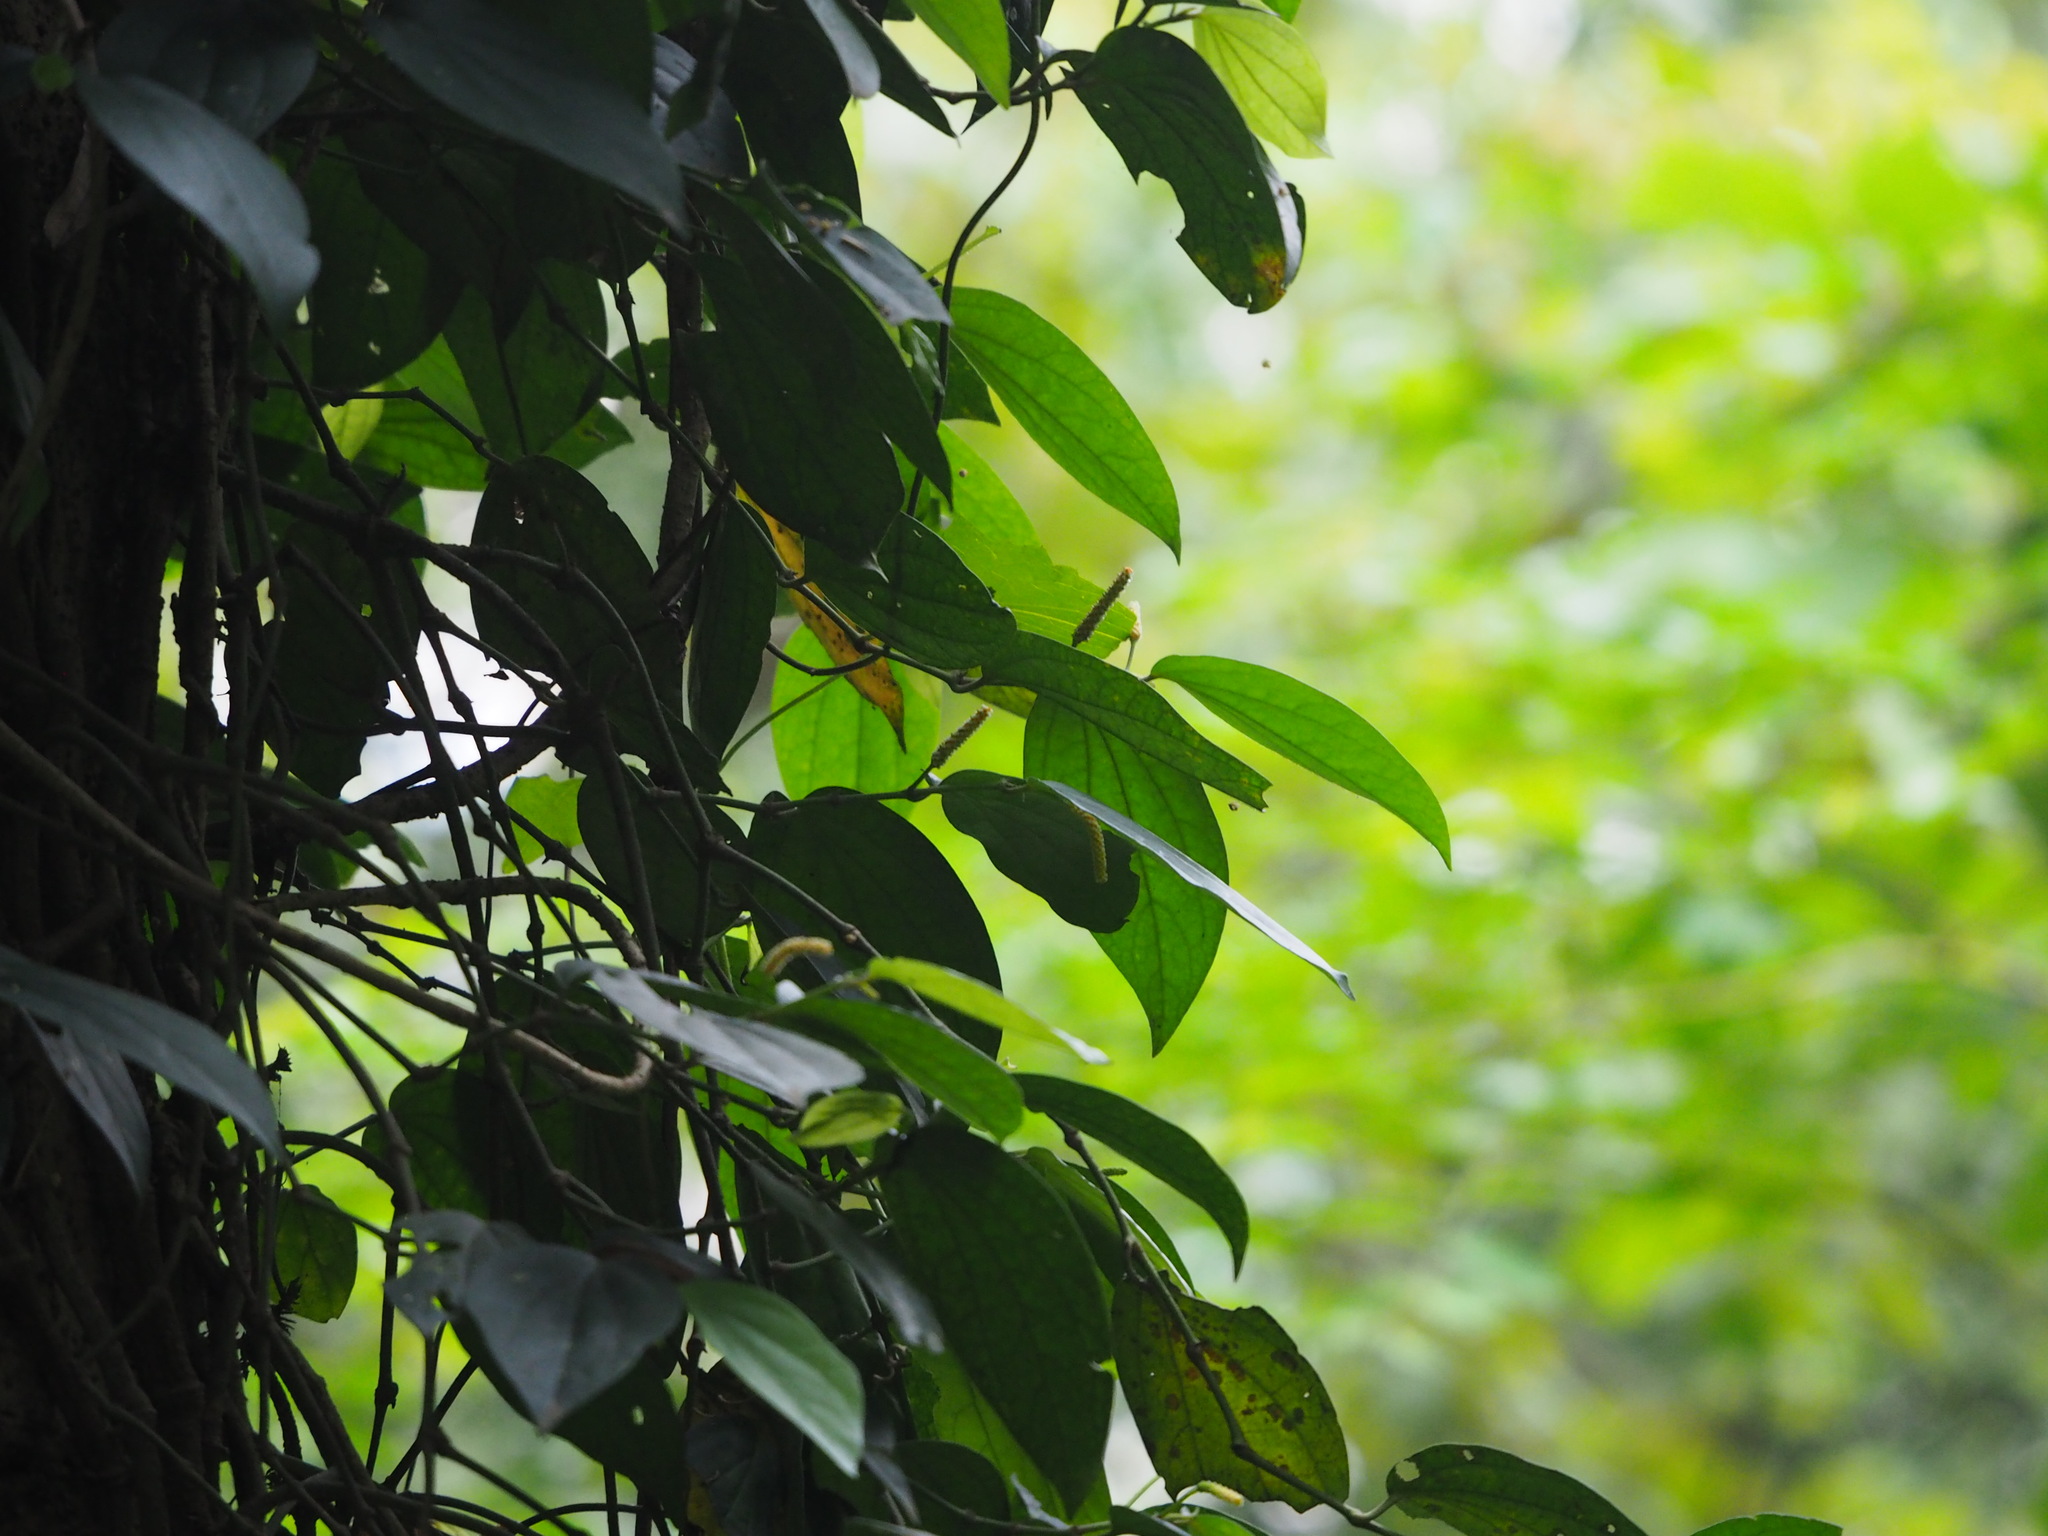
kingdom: Plantae
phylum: Tracheophyta
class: Magnoliopsida
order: Piperales
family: Piperaceae
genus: Piper
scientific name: Piper kadsura
